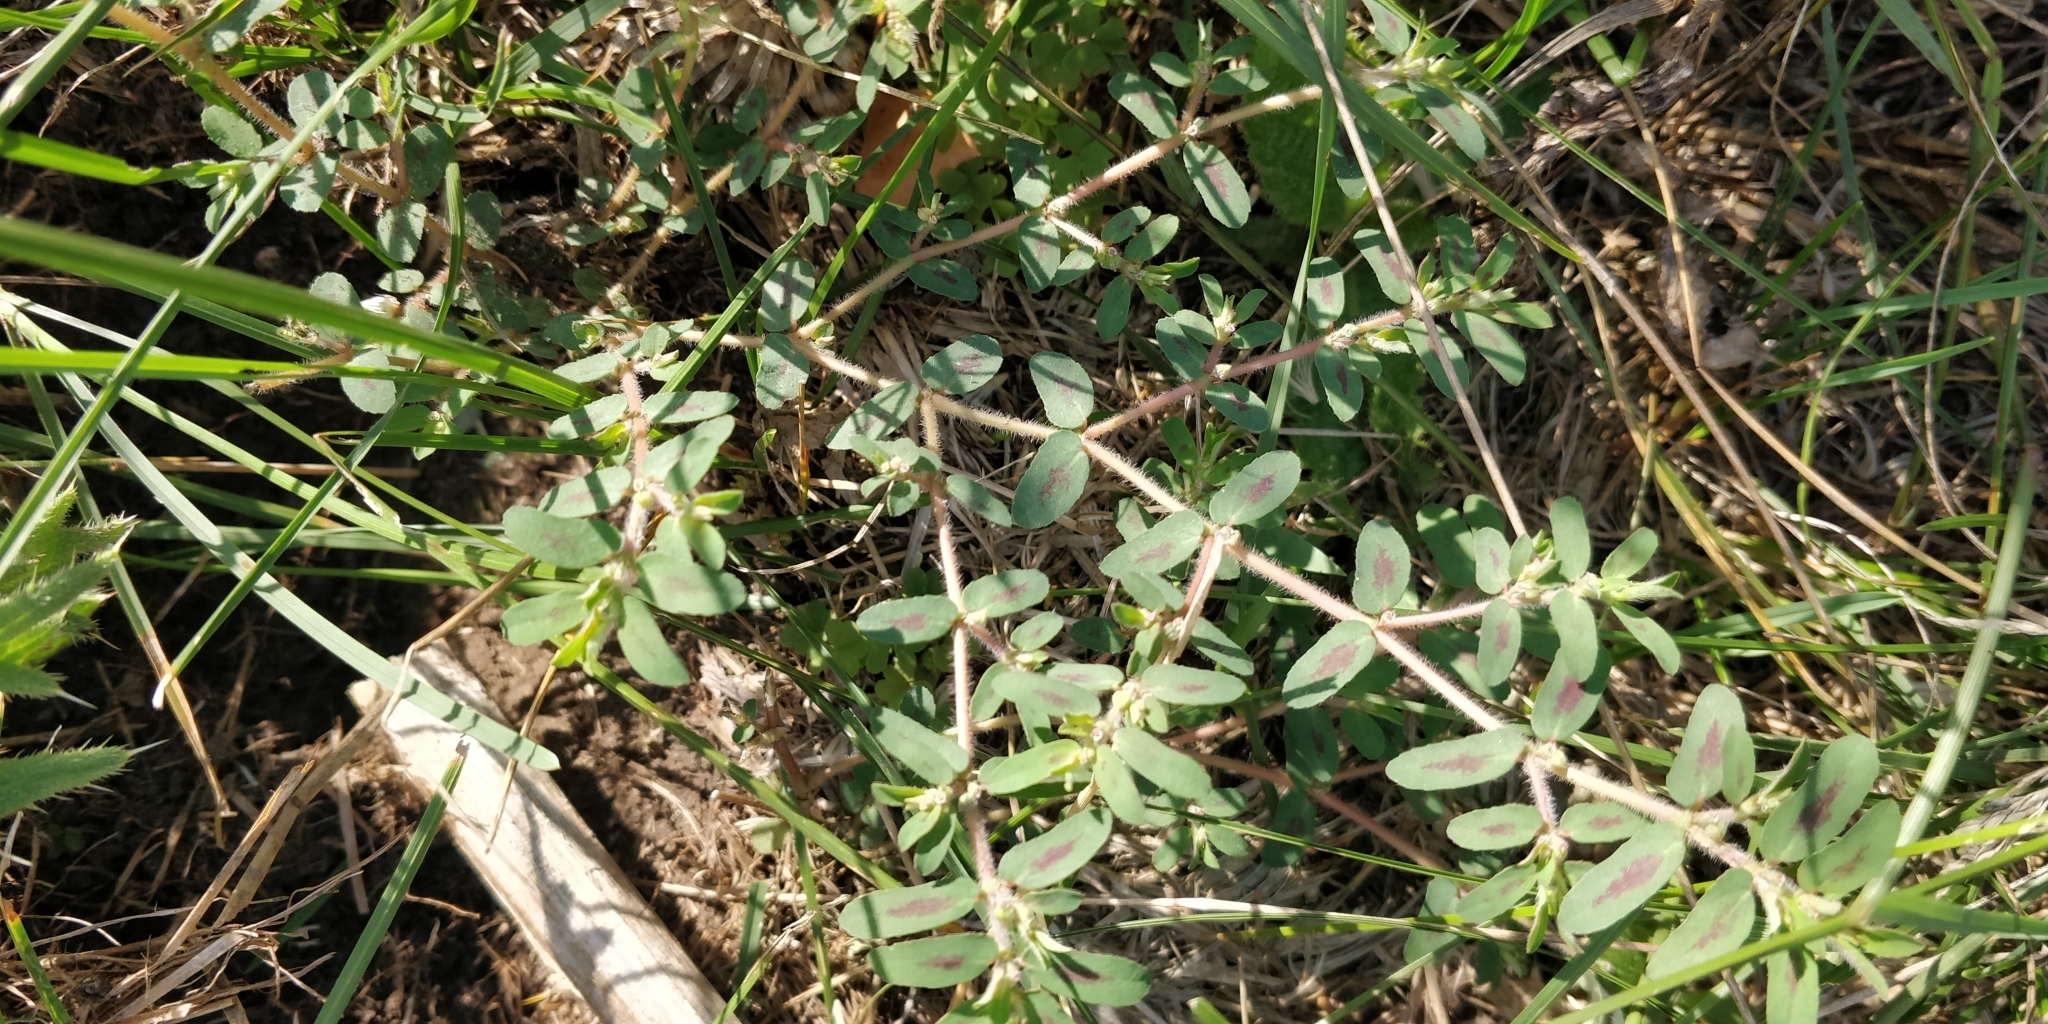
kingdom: Plantae
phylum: Tracheophyta
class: Magnoliopsida
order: Malpighiales
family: Euphorbiaceae
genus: Euphorbia
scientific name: Euphorbia maculata
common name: Spotted spurge
